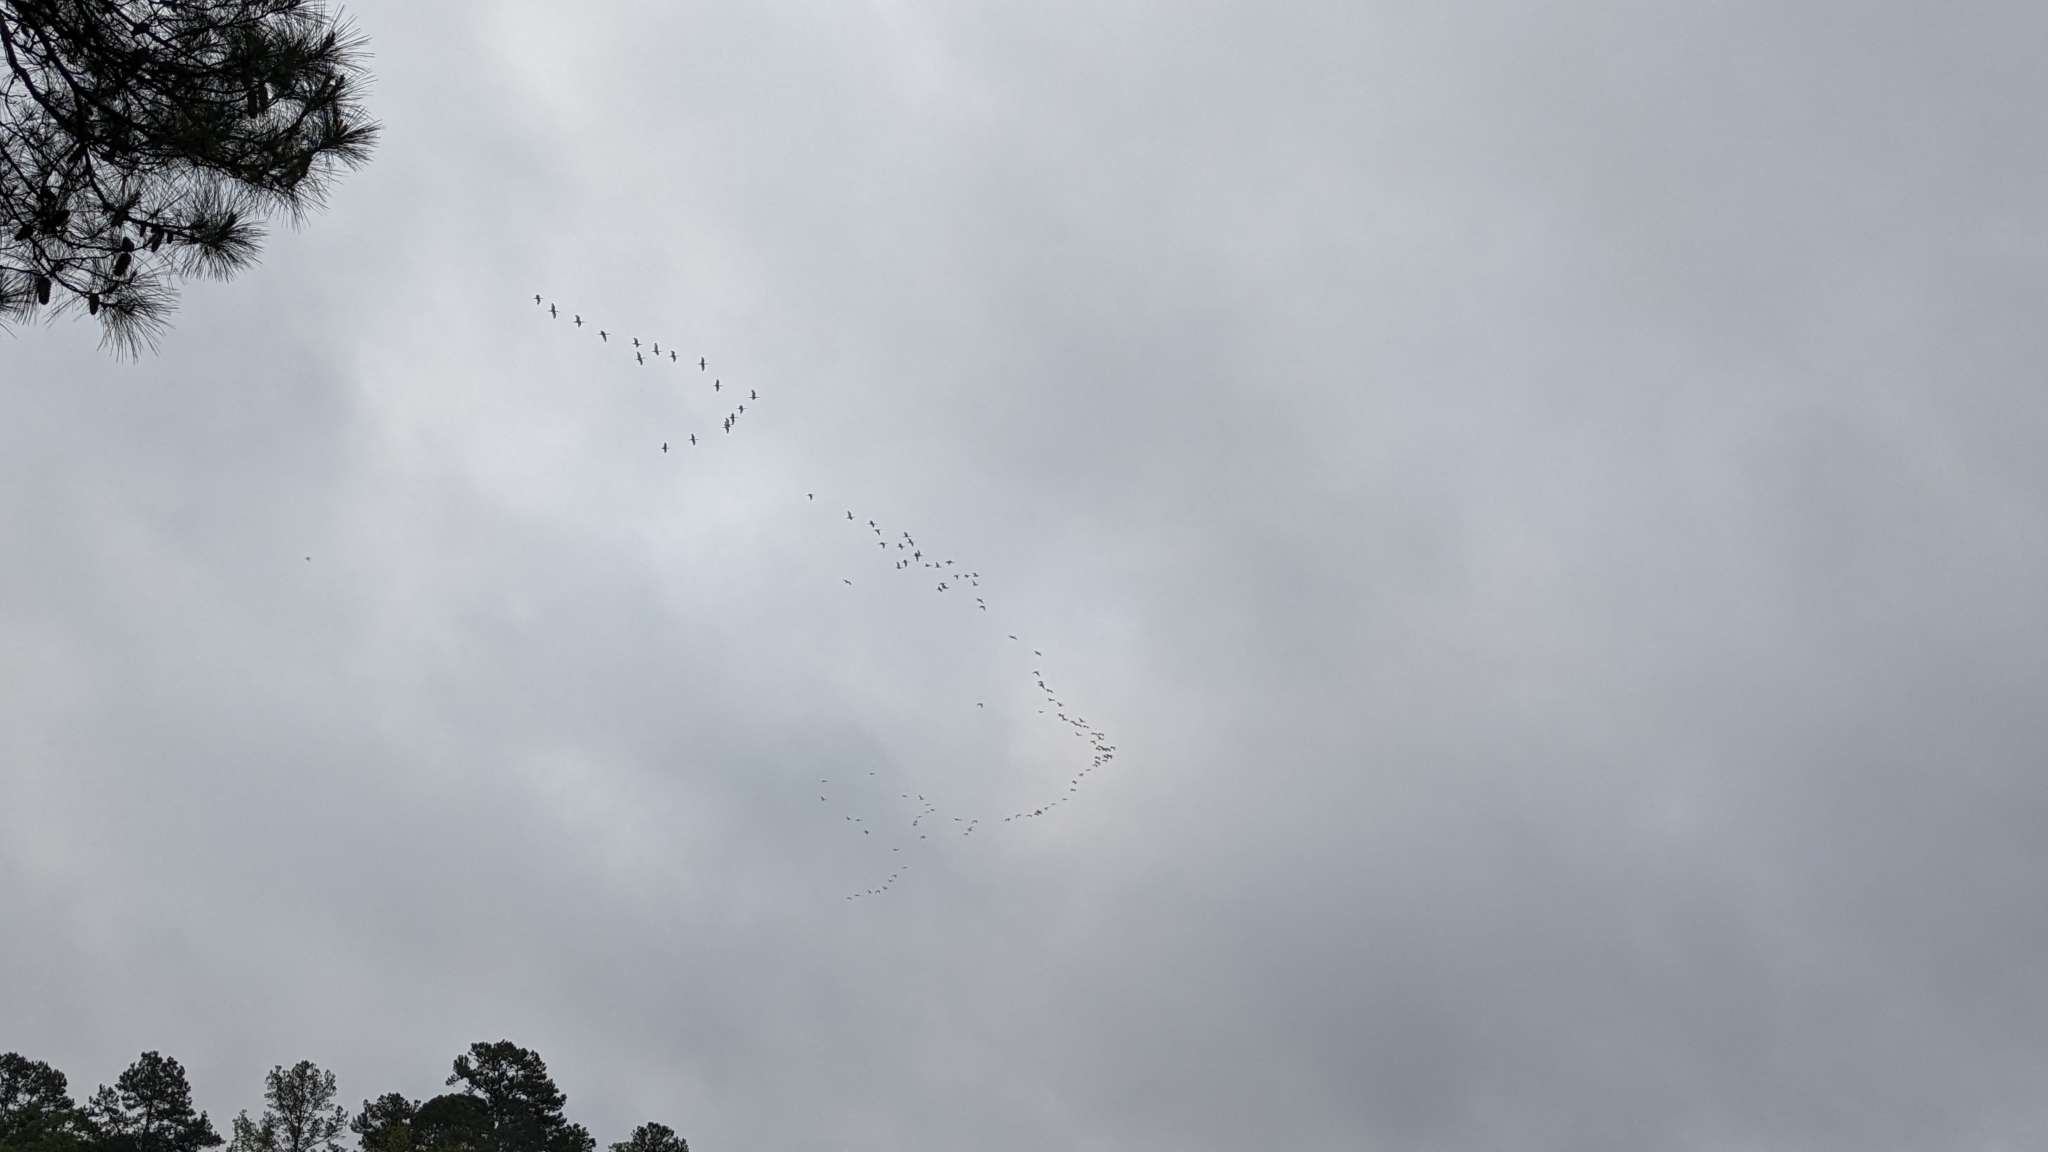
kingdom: Animalia
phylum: Chordata
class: Aves
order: Pelecaniformes
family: Threskiornithidae
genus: Eudocimus
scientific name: Eudocimus albus
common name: White ibis
